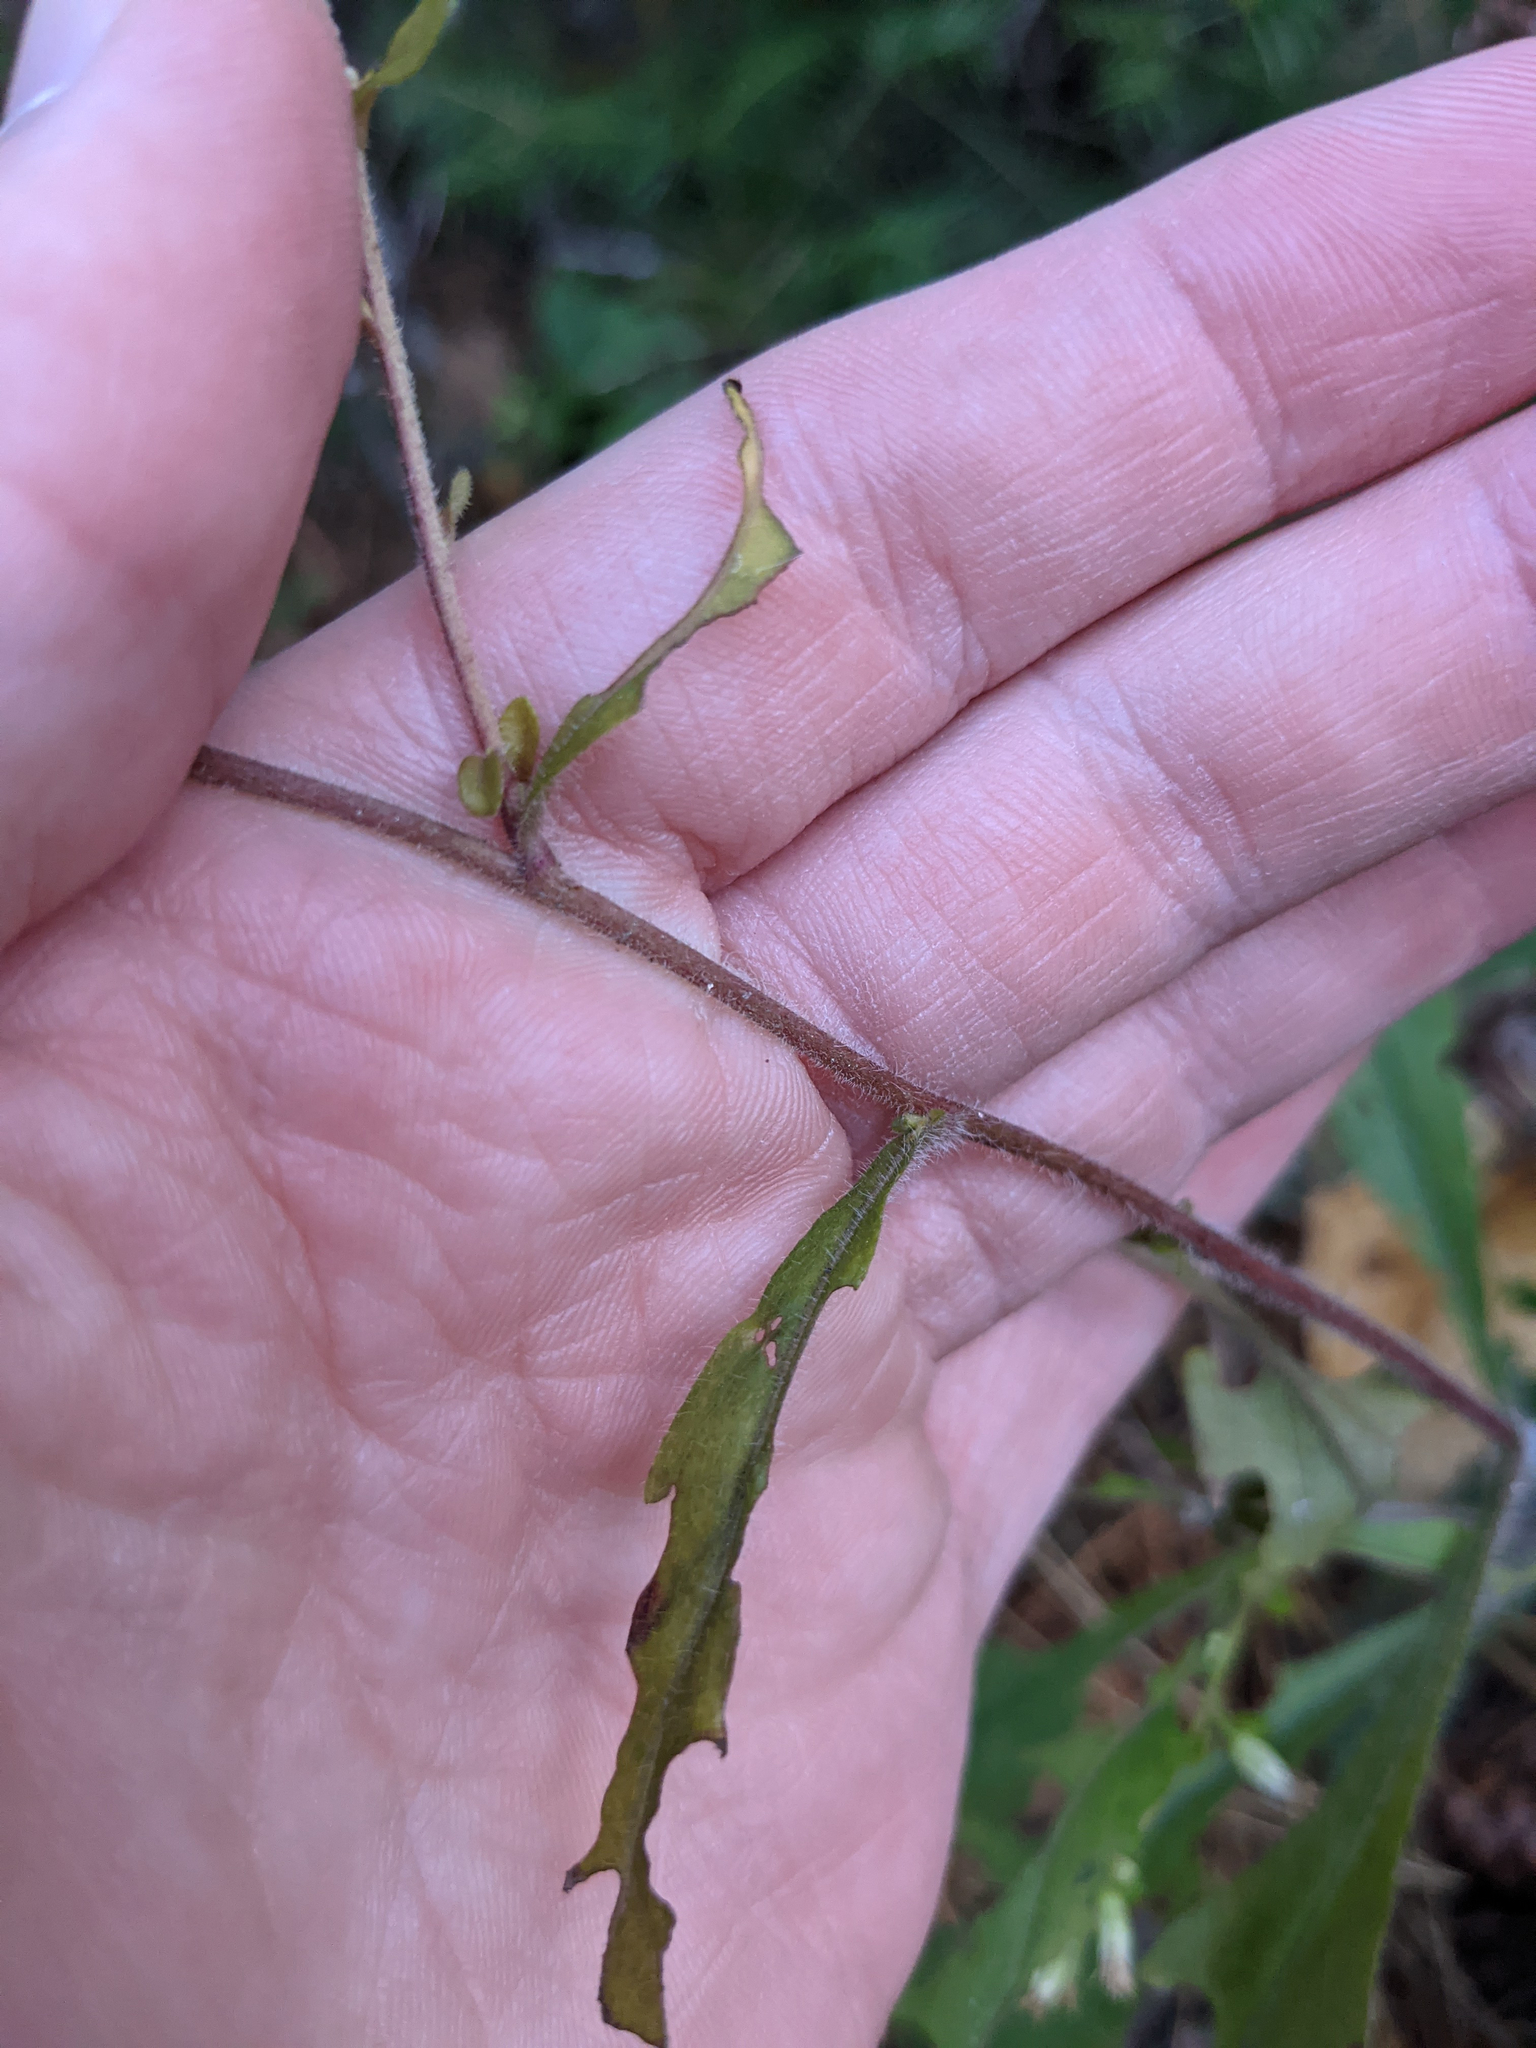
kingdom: Plantae
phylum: Tracheophyta
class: Magnoliopsida
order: Asterales
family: Asteraceae
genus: Solidago
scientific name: Solidago bicolor
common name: Silverrod
